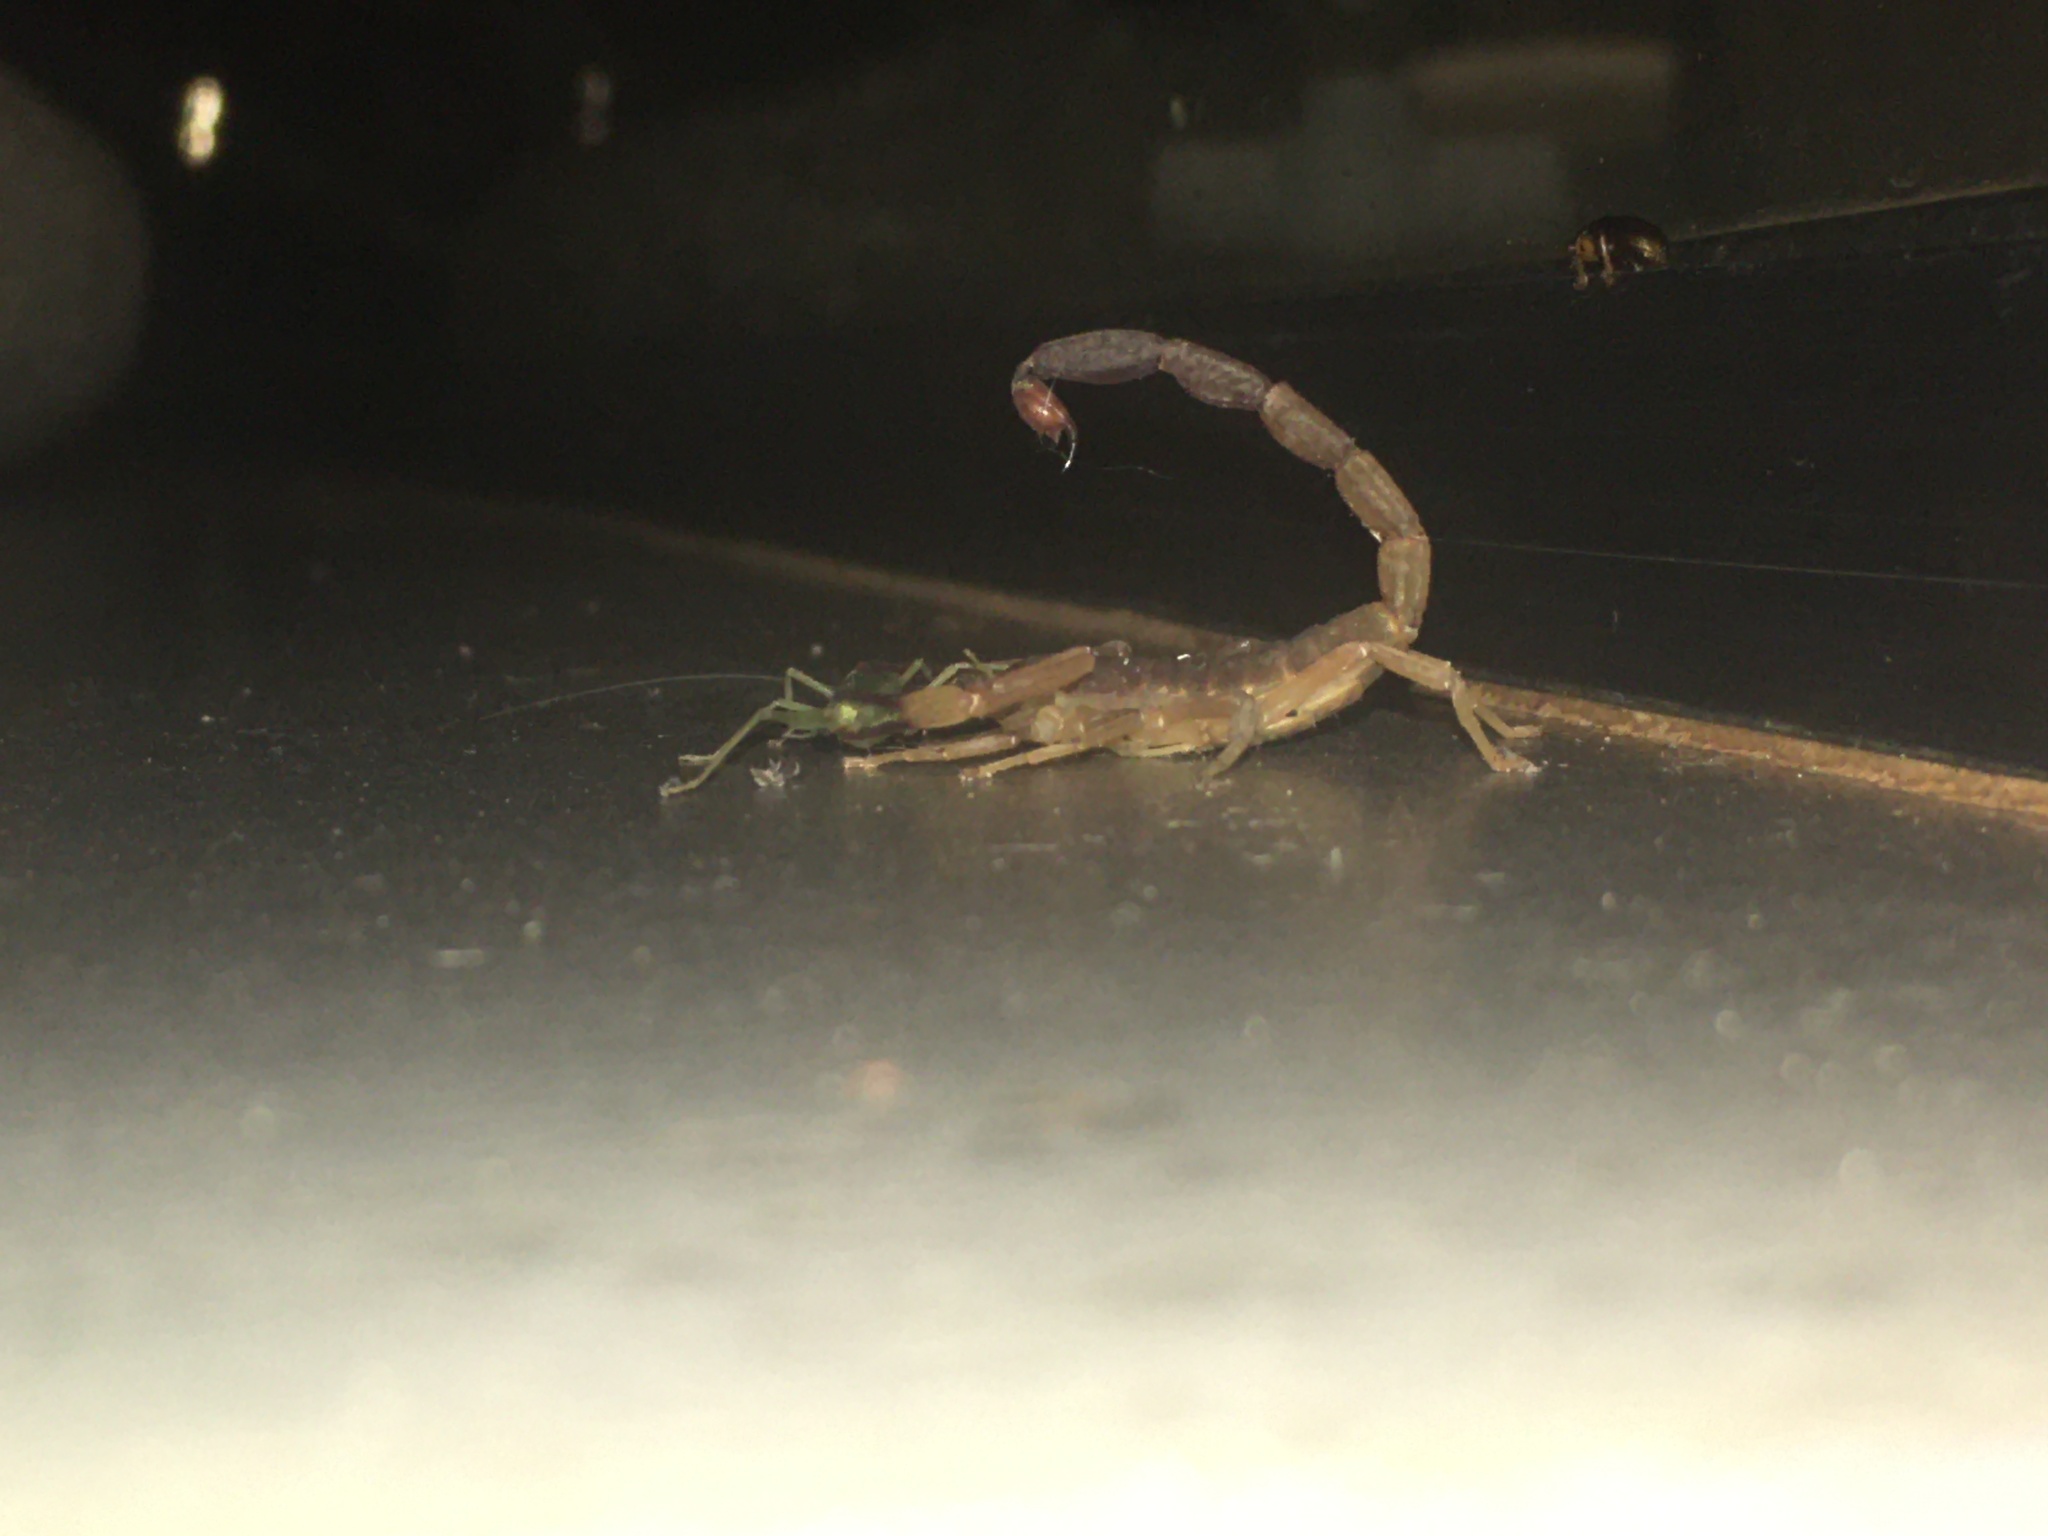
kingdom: Animalia
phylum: Arthropoda
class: Arachnida
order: Scorpiones
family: Buthidae
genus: Tityus
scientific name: Tityus confluens
